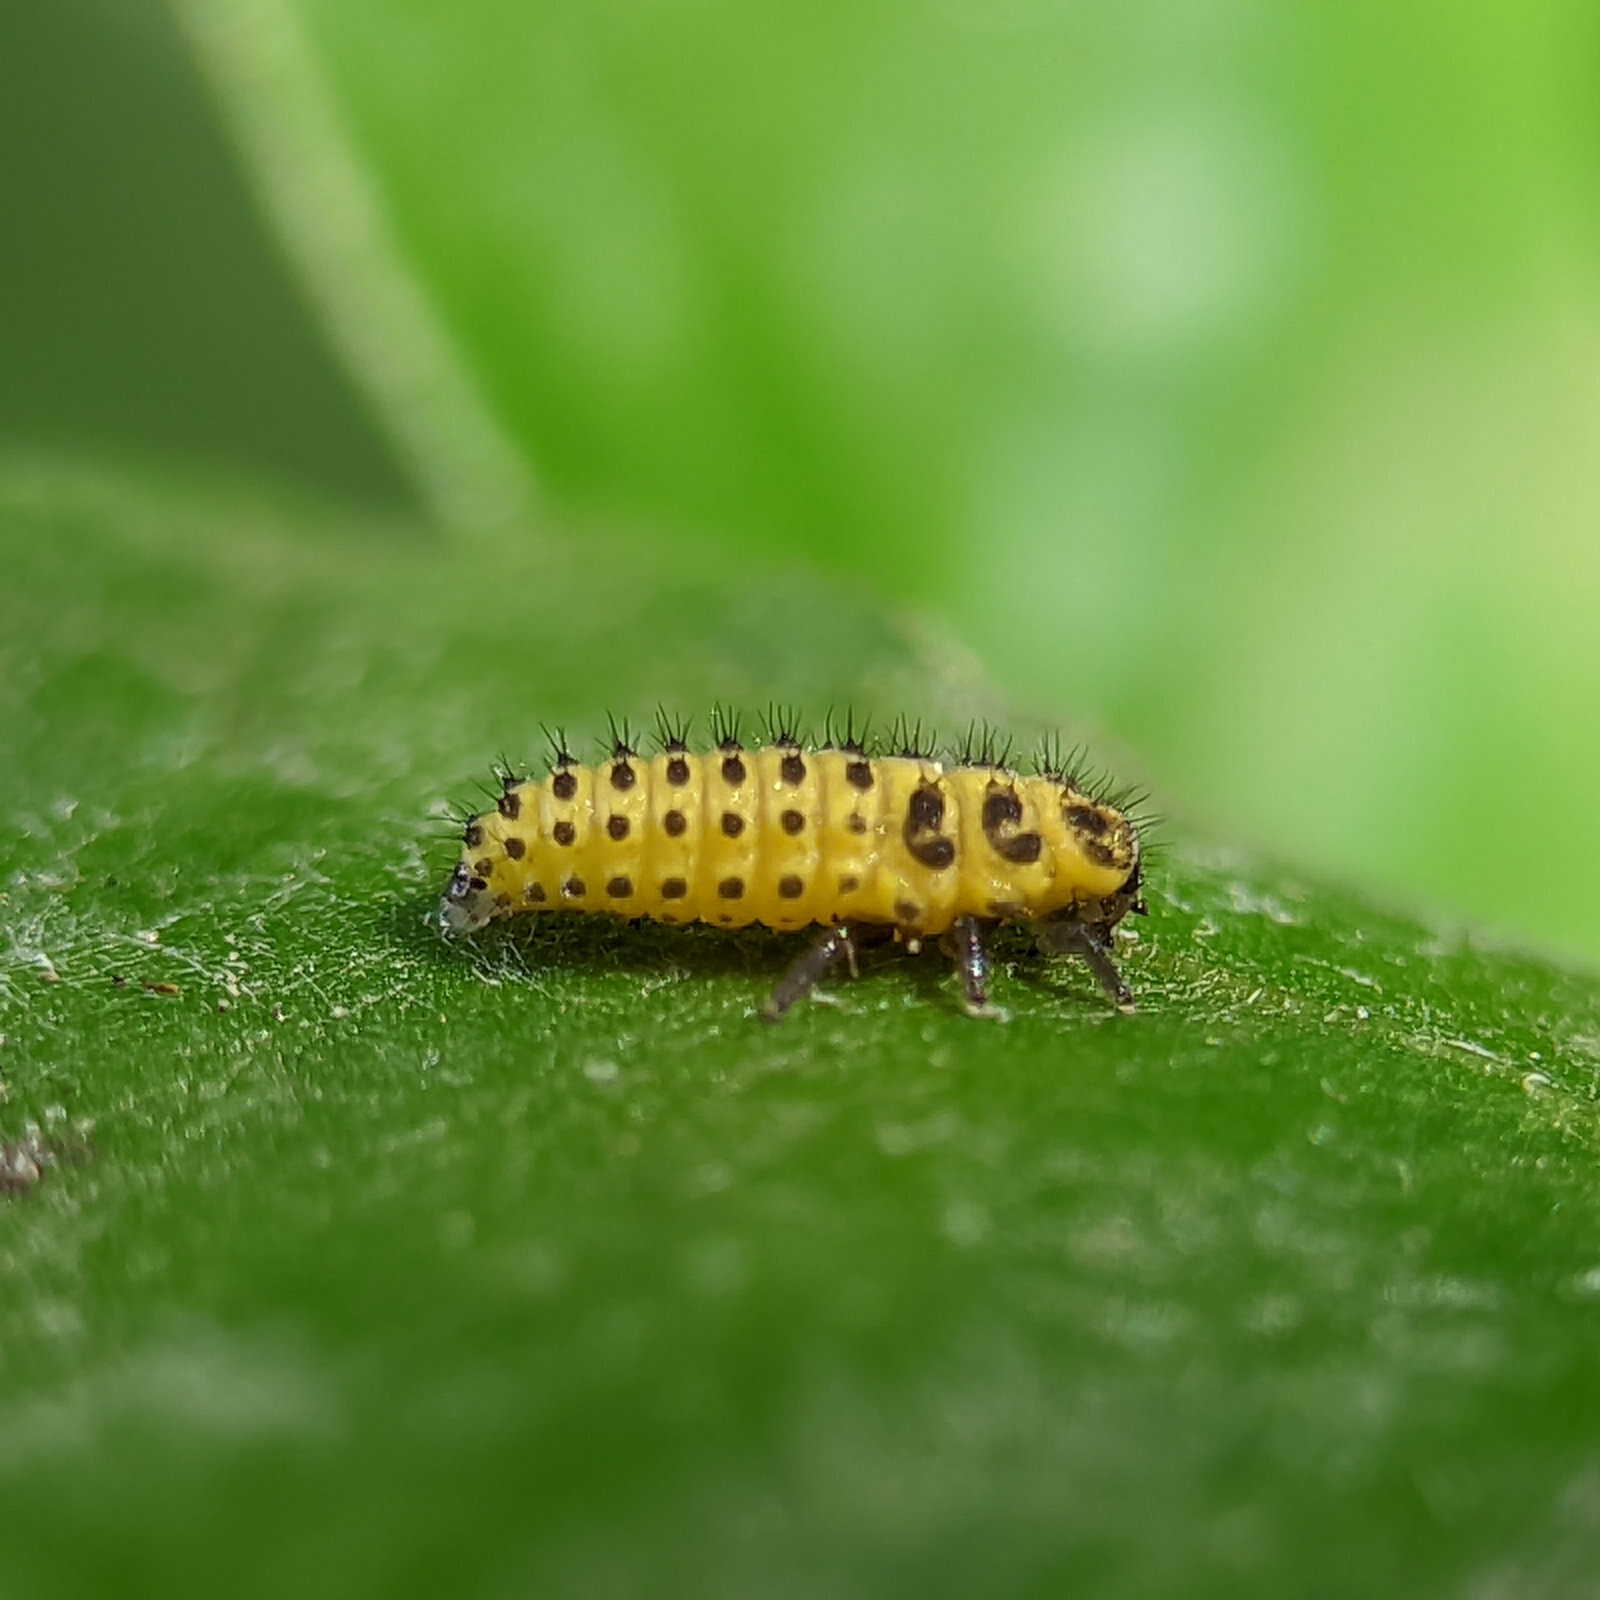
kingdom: Animalia
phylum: Arthropoda
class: Insecta
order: Coleoptera
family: Coccinellidae
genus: Psyllobora
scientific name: Psyllobora vigintiduopunctata
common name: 22-spot ladybird
